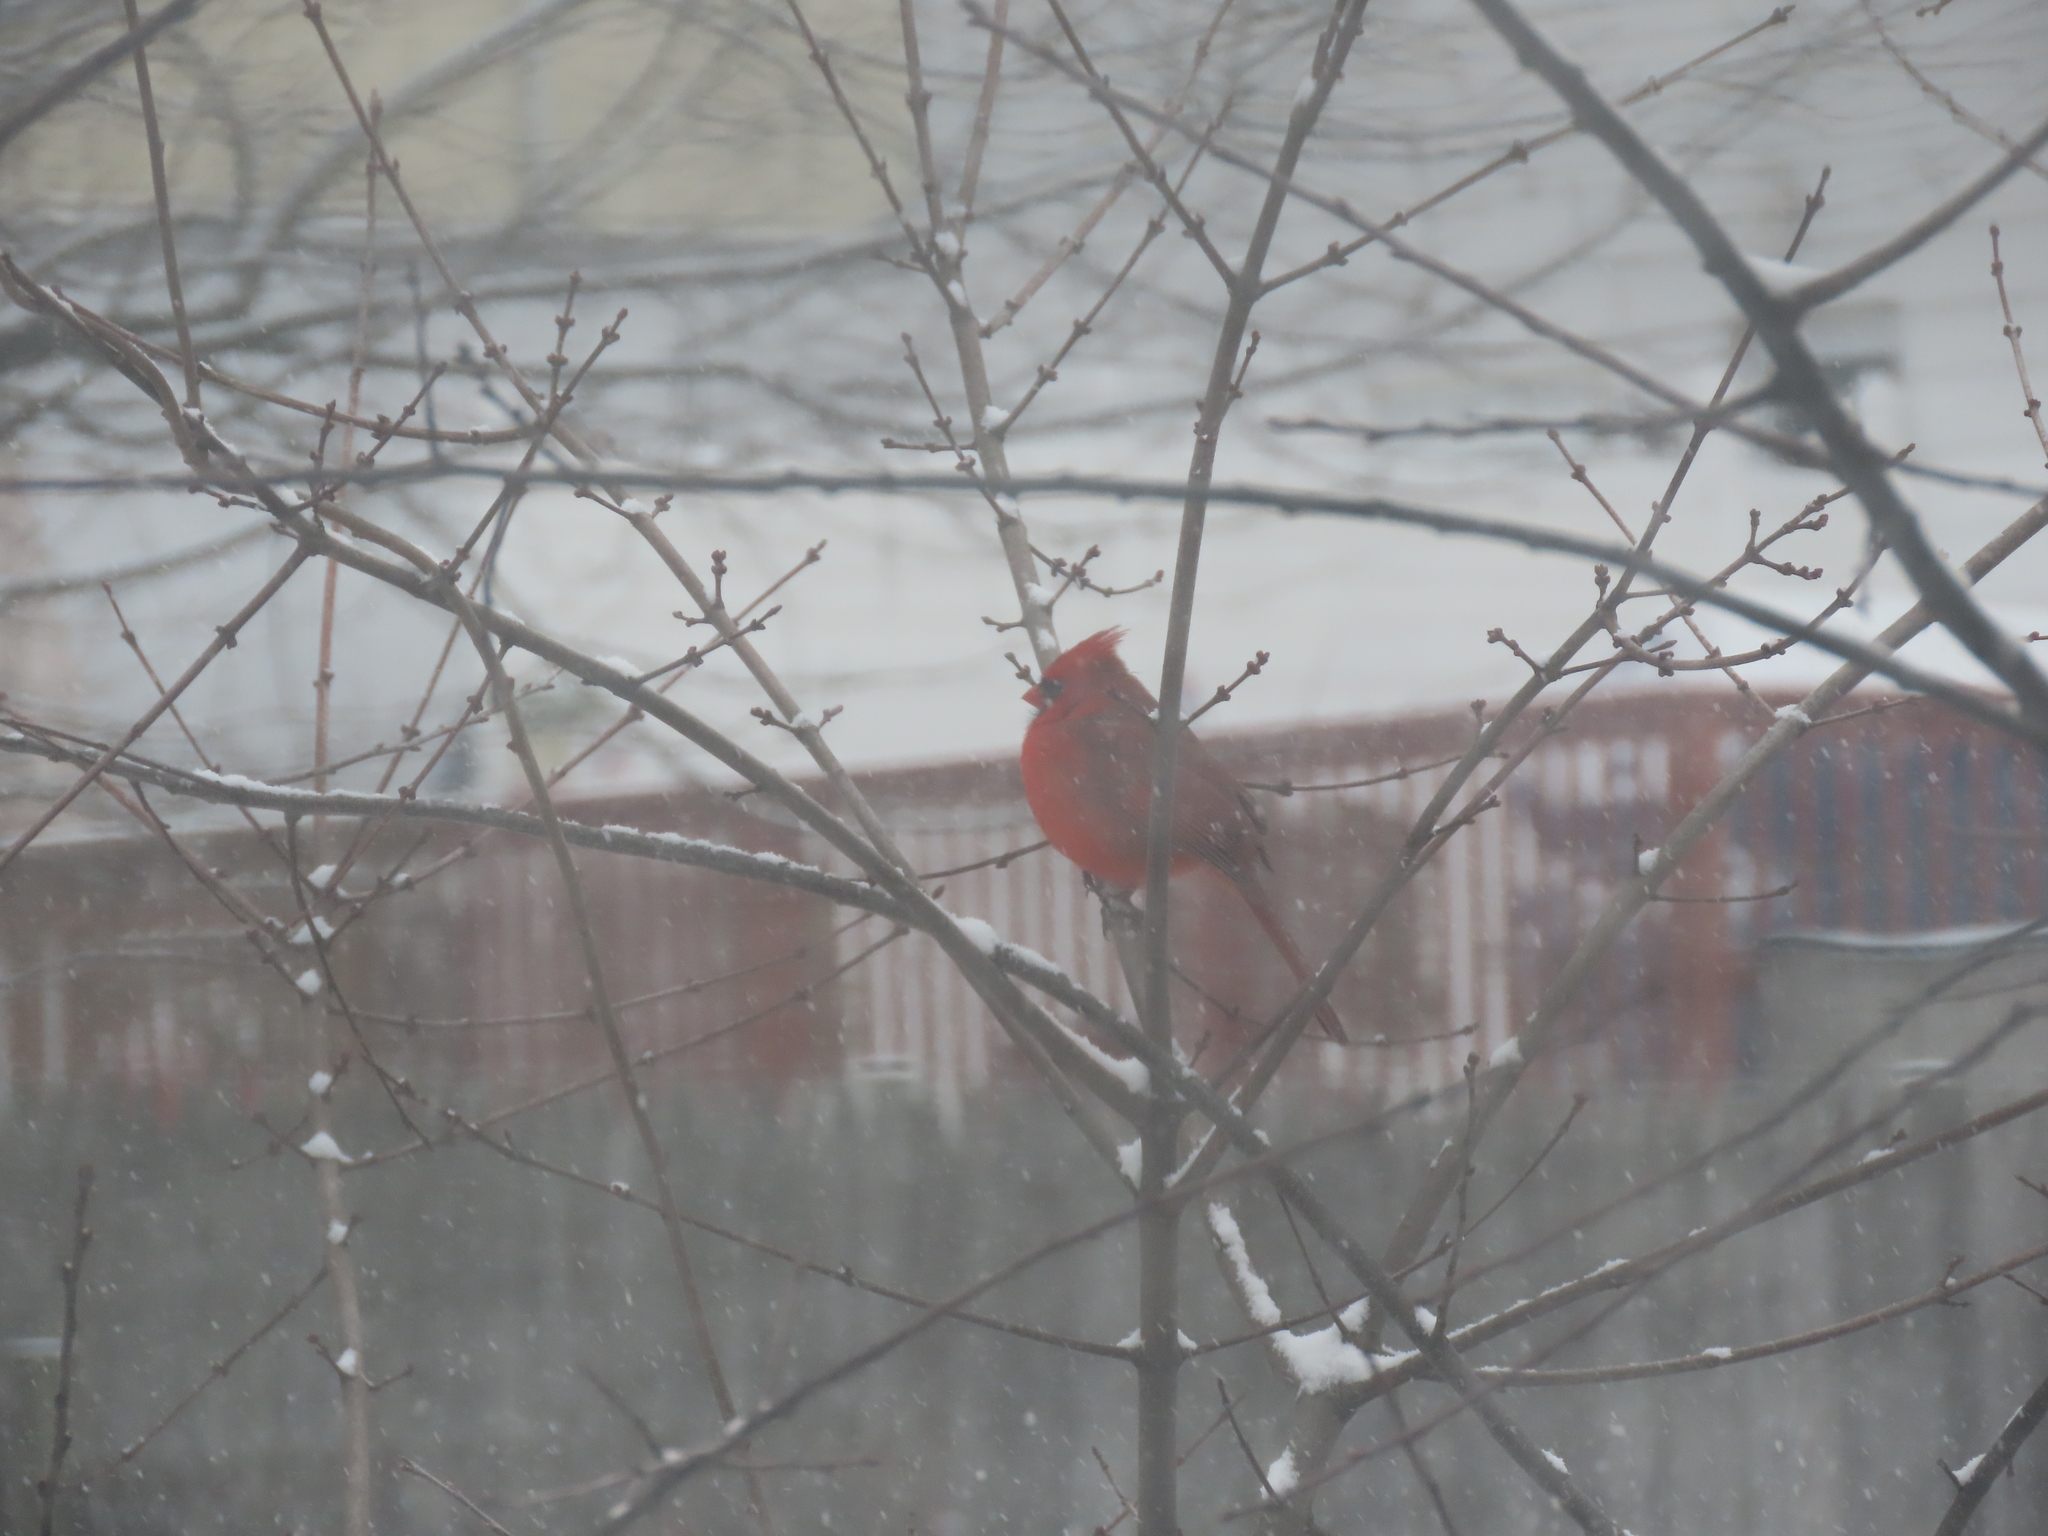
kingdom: Animalia
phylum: Chordata
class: Aves
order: Passeriformes
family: Cardinalidae
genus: Cardinalis
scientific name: Cardinalis cardinalis
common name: Northern cardinal
